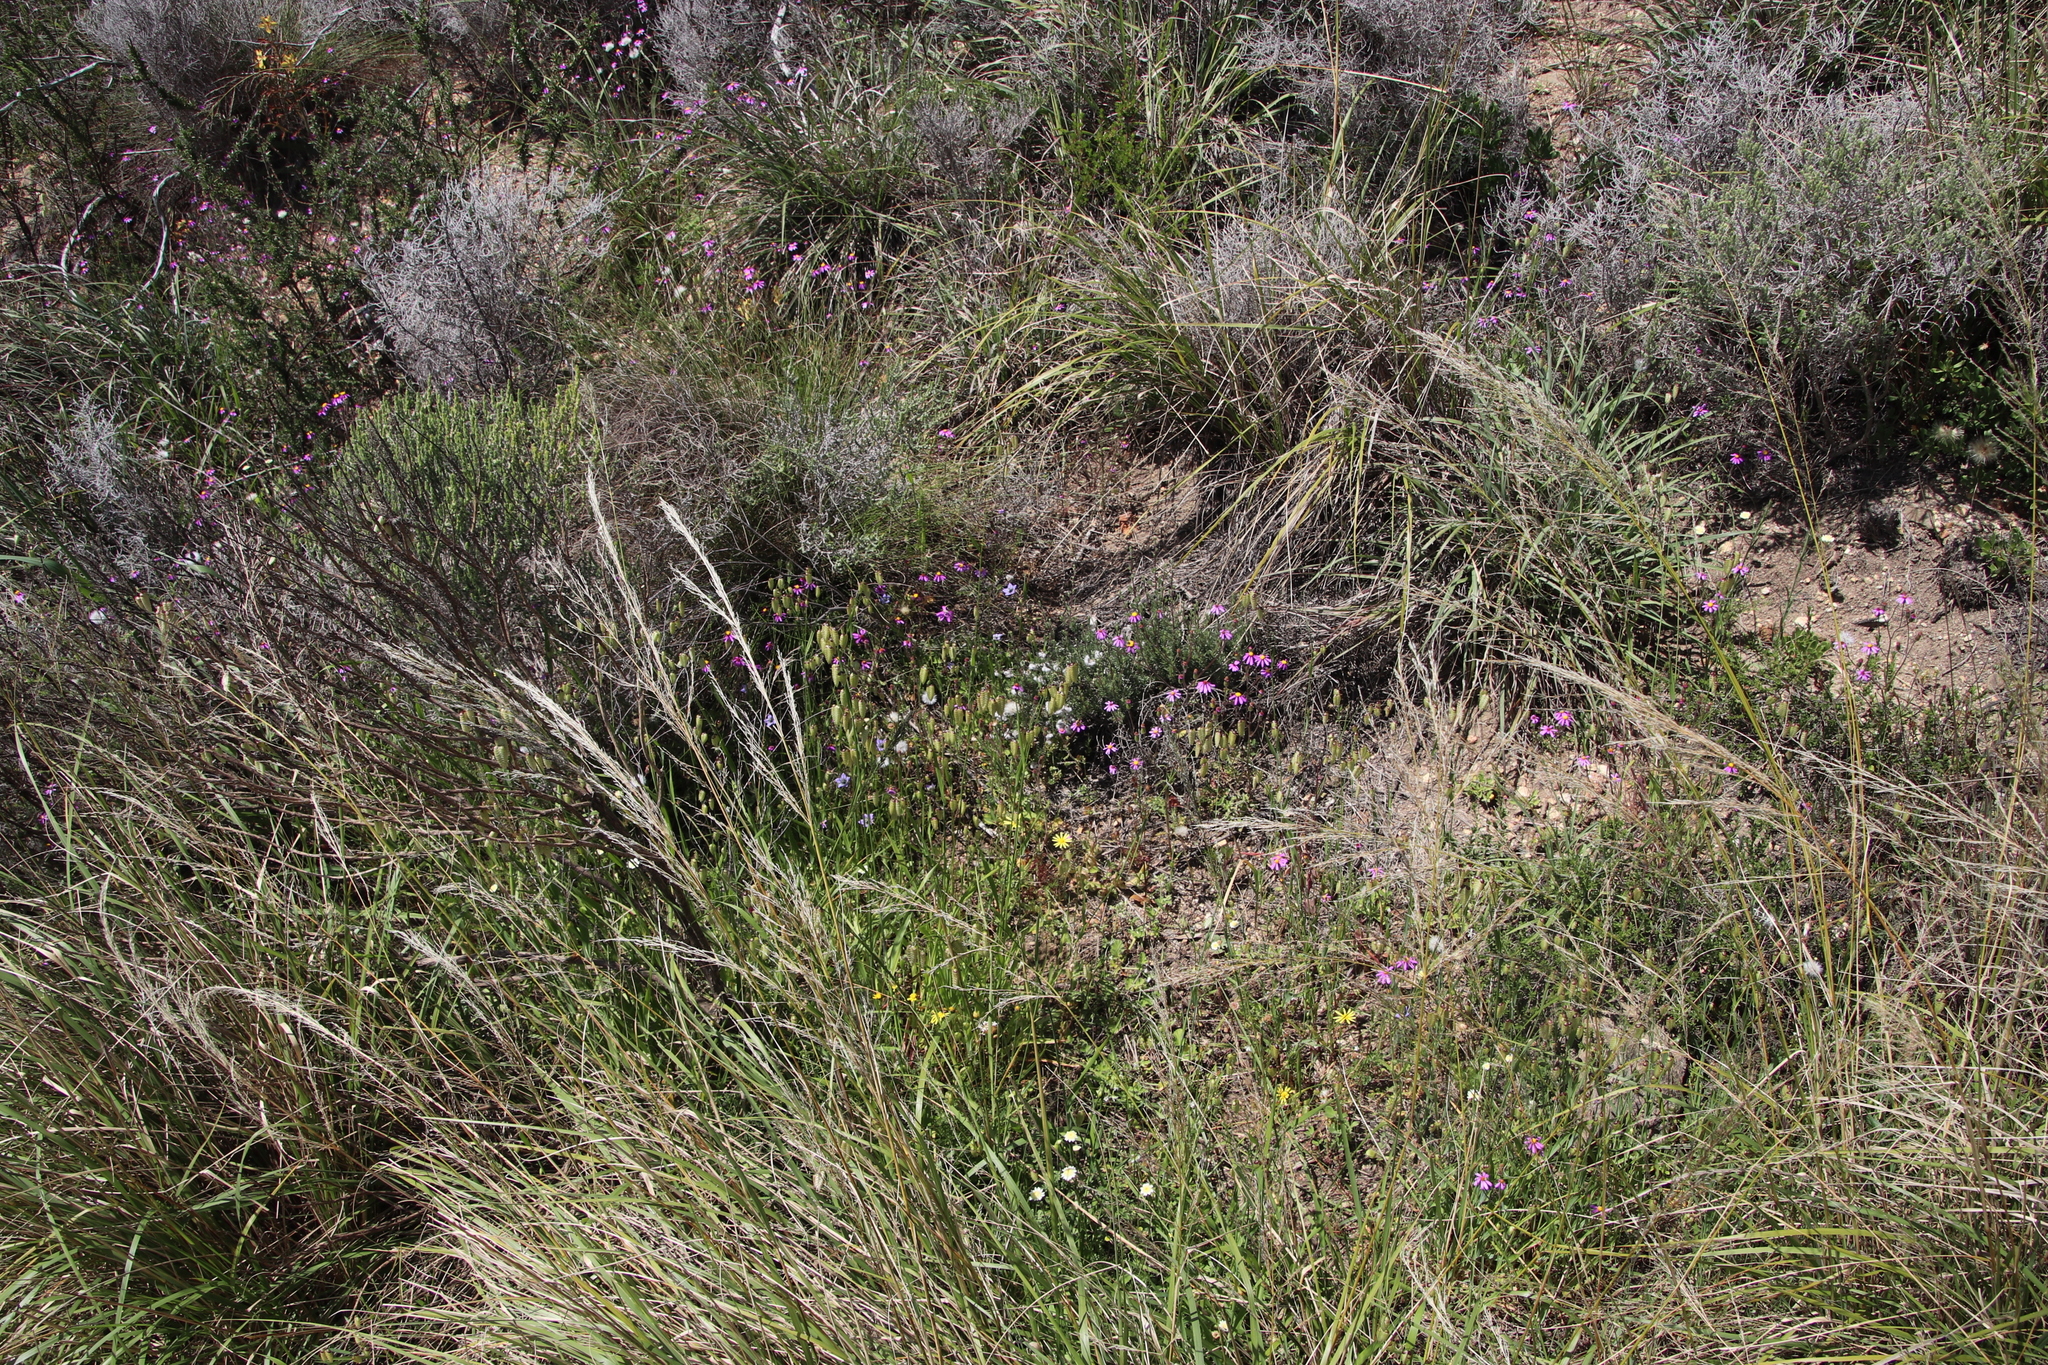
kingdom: Plantae
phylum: Tracheophyta
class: Liliopsida
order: Poales
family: Poaceae
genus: Briza
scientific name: Briza maxima
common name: Big quakinggrass
